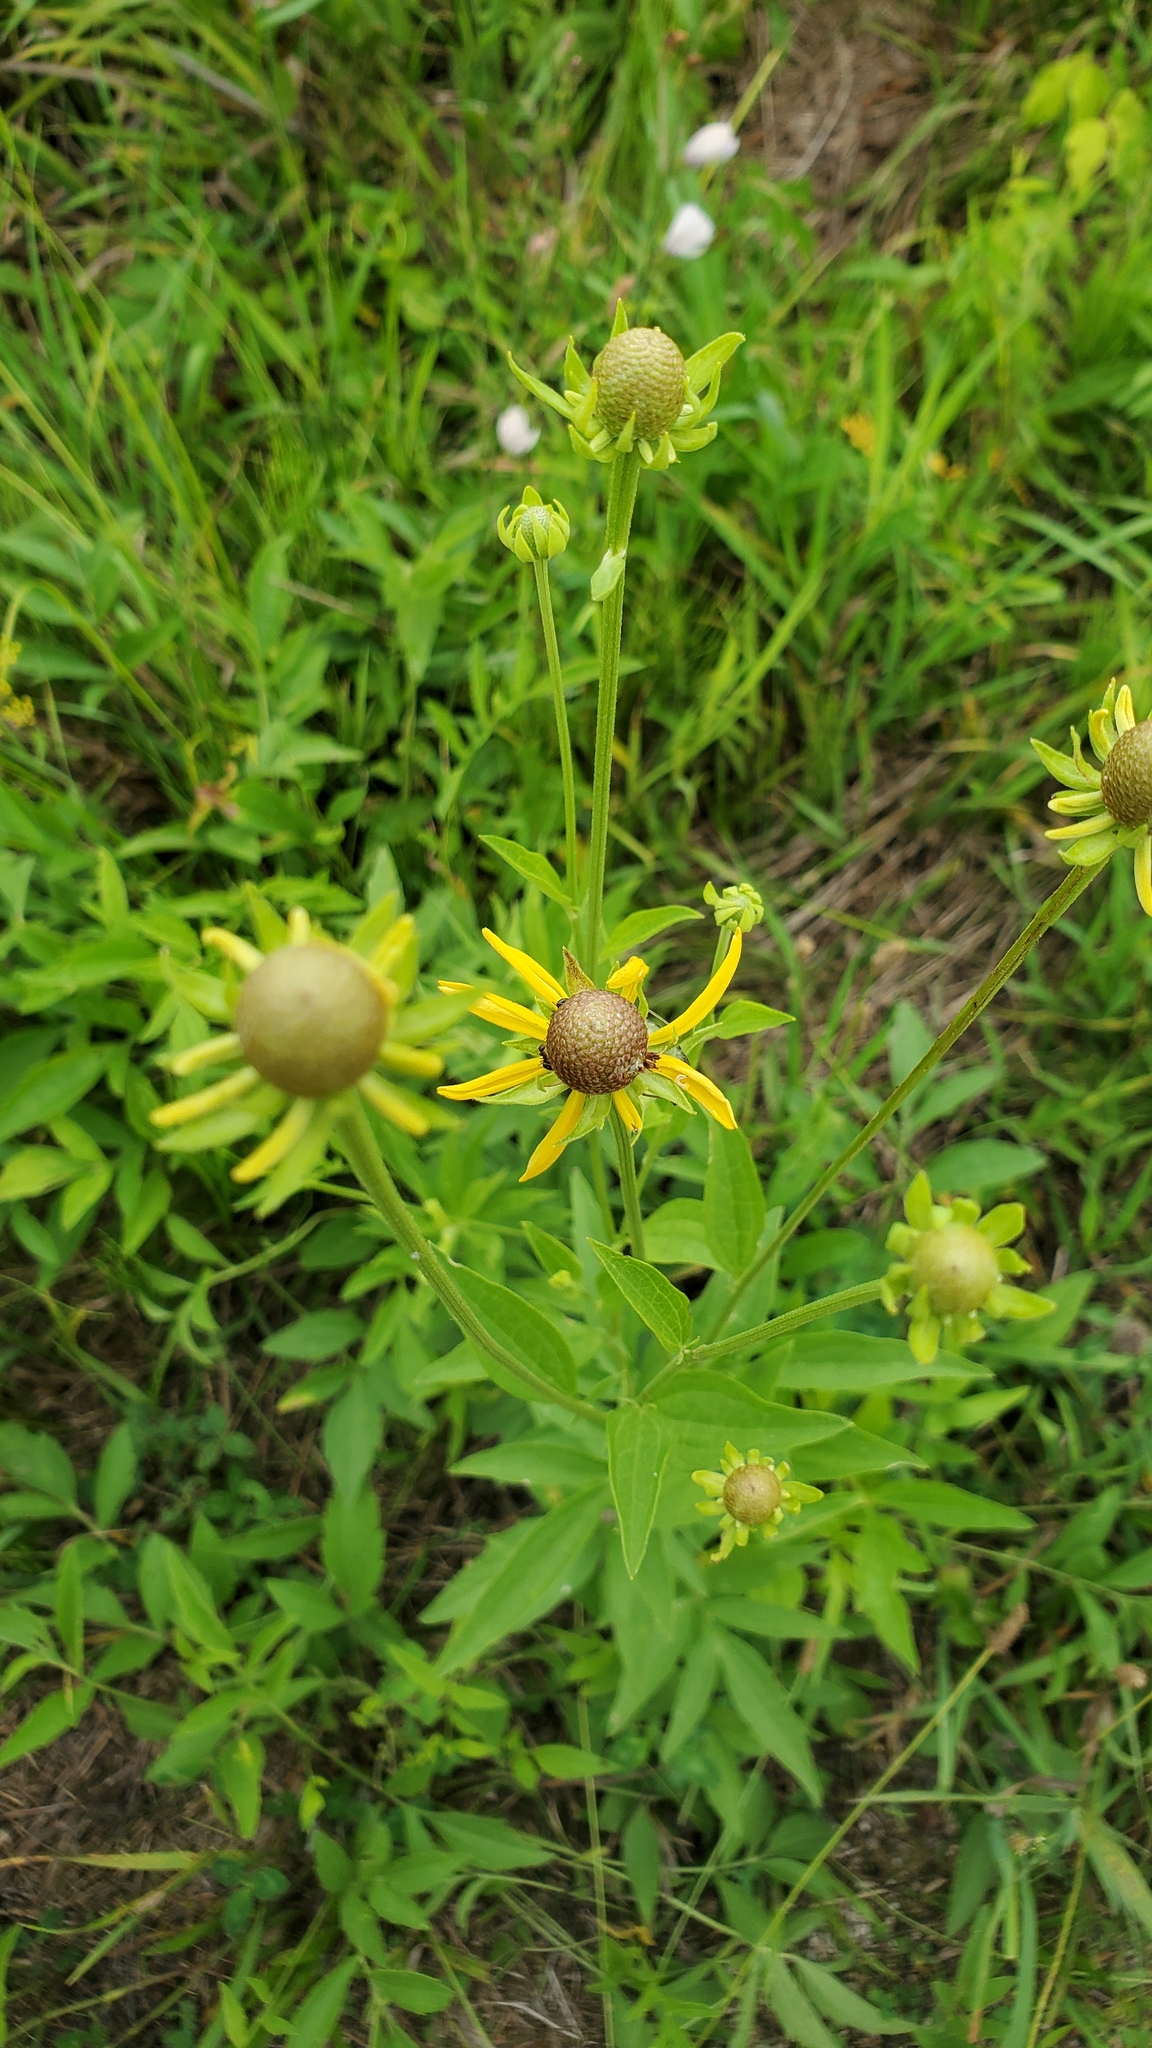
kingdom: Plantae
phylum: Tracheophyta
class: Magnoliopsida
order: Asterales
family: Asteraceae
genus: Ratibida
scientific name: Ratibida pinnata
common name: Drooping prairie-coneflower
